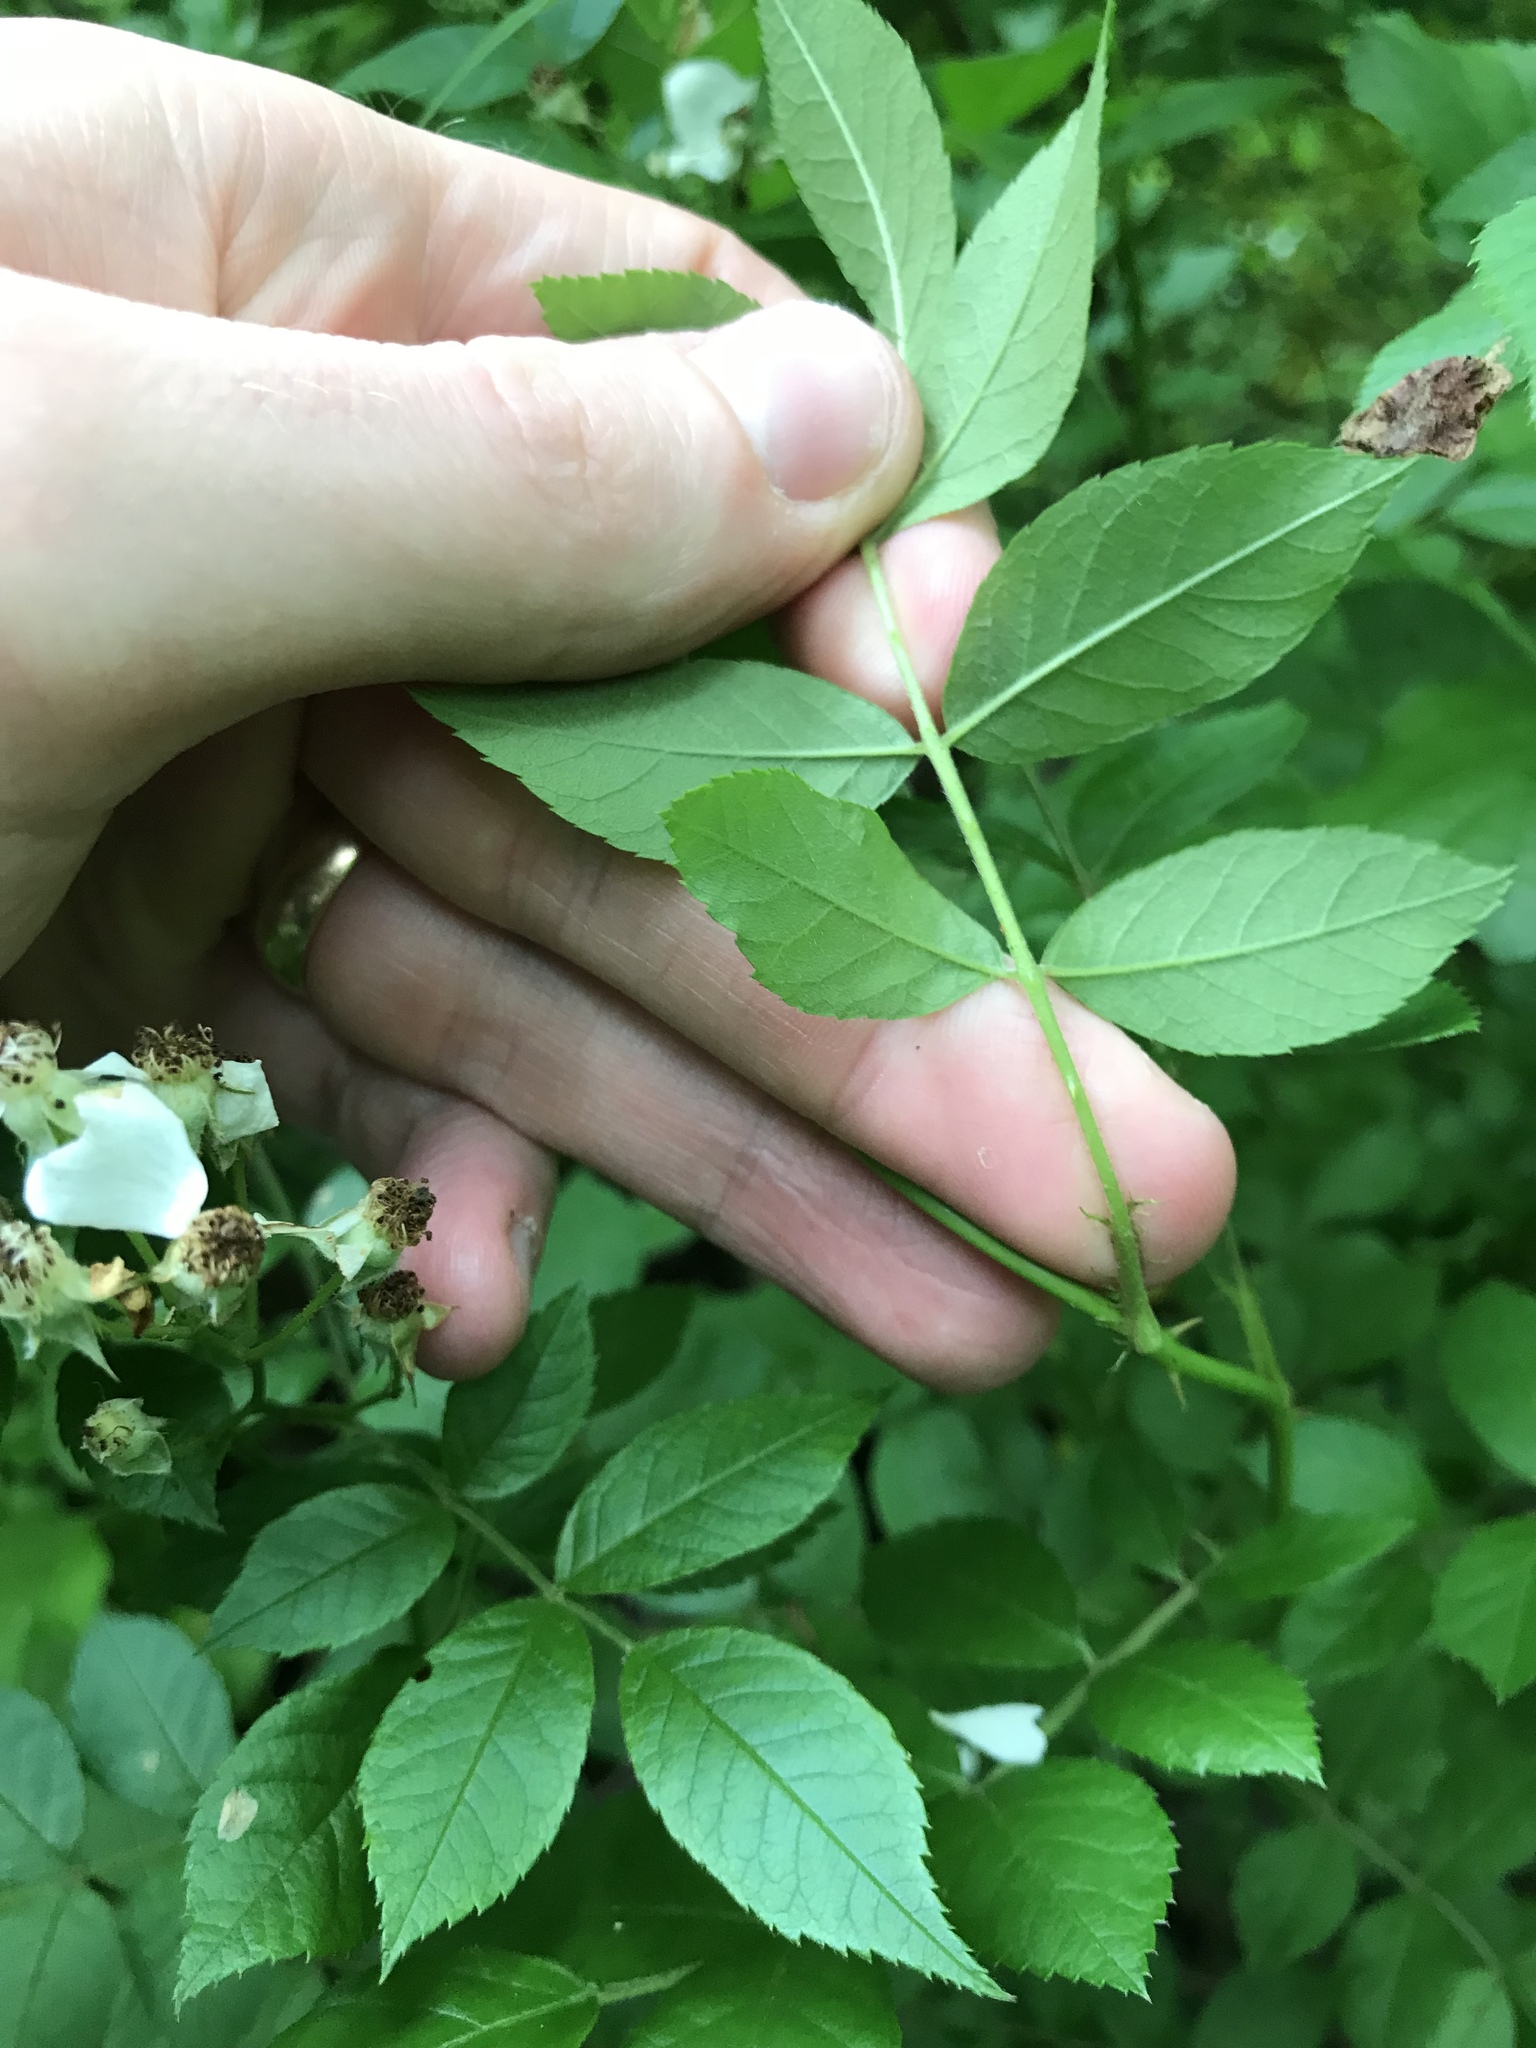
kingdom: Plantae
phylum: Tracheophyta
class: Magnoliopsida
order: Rosales
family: Rosaceae
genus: Rosa
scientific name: Rosa multiflora
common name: Multiflora rose
